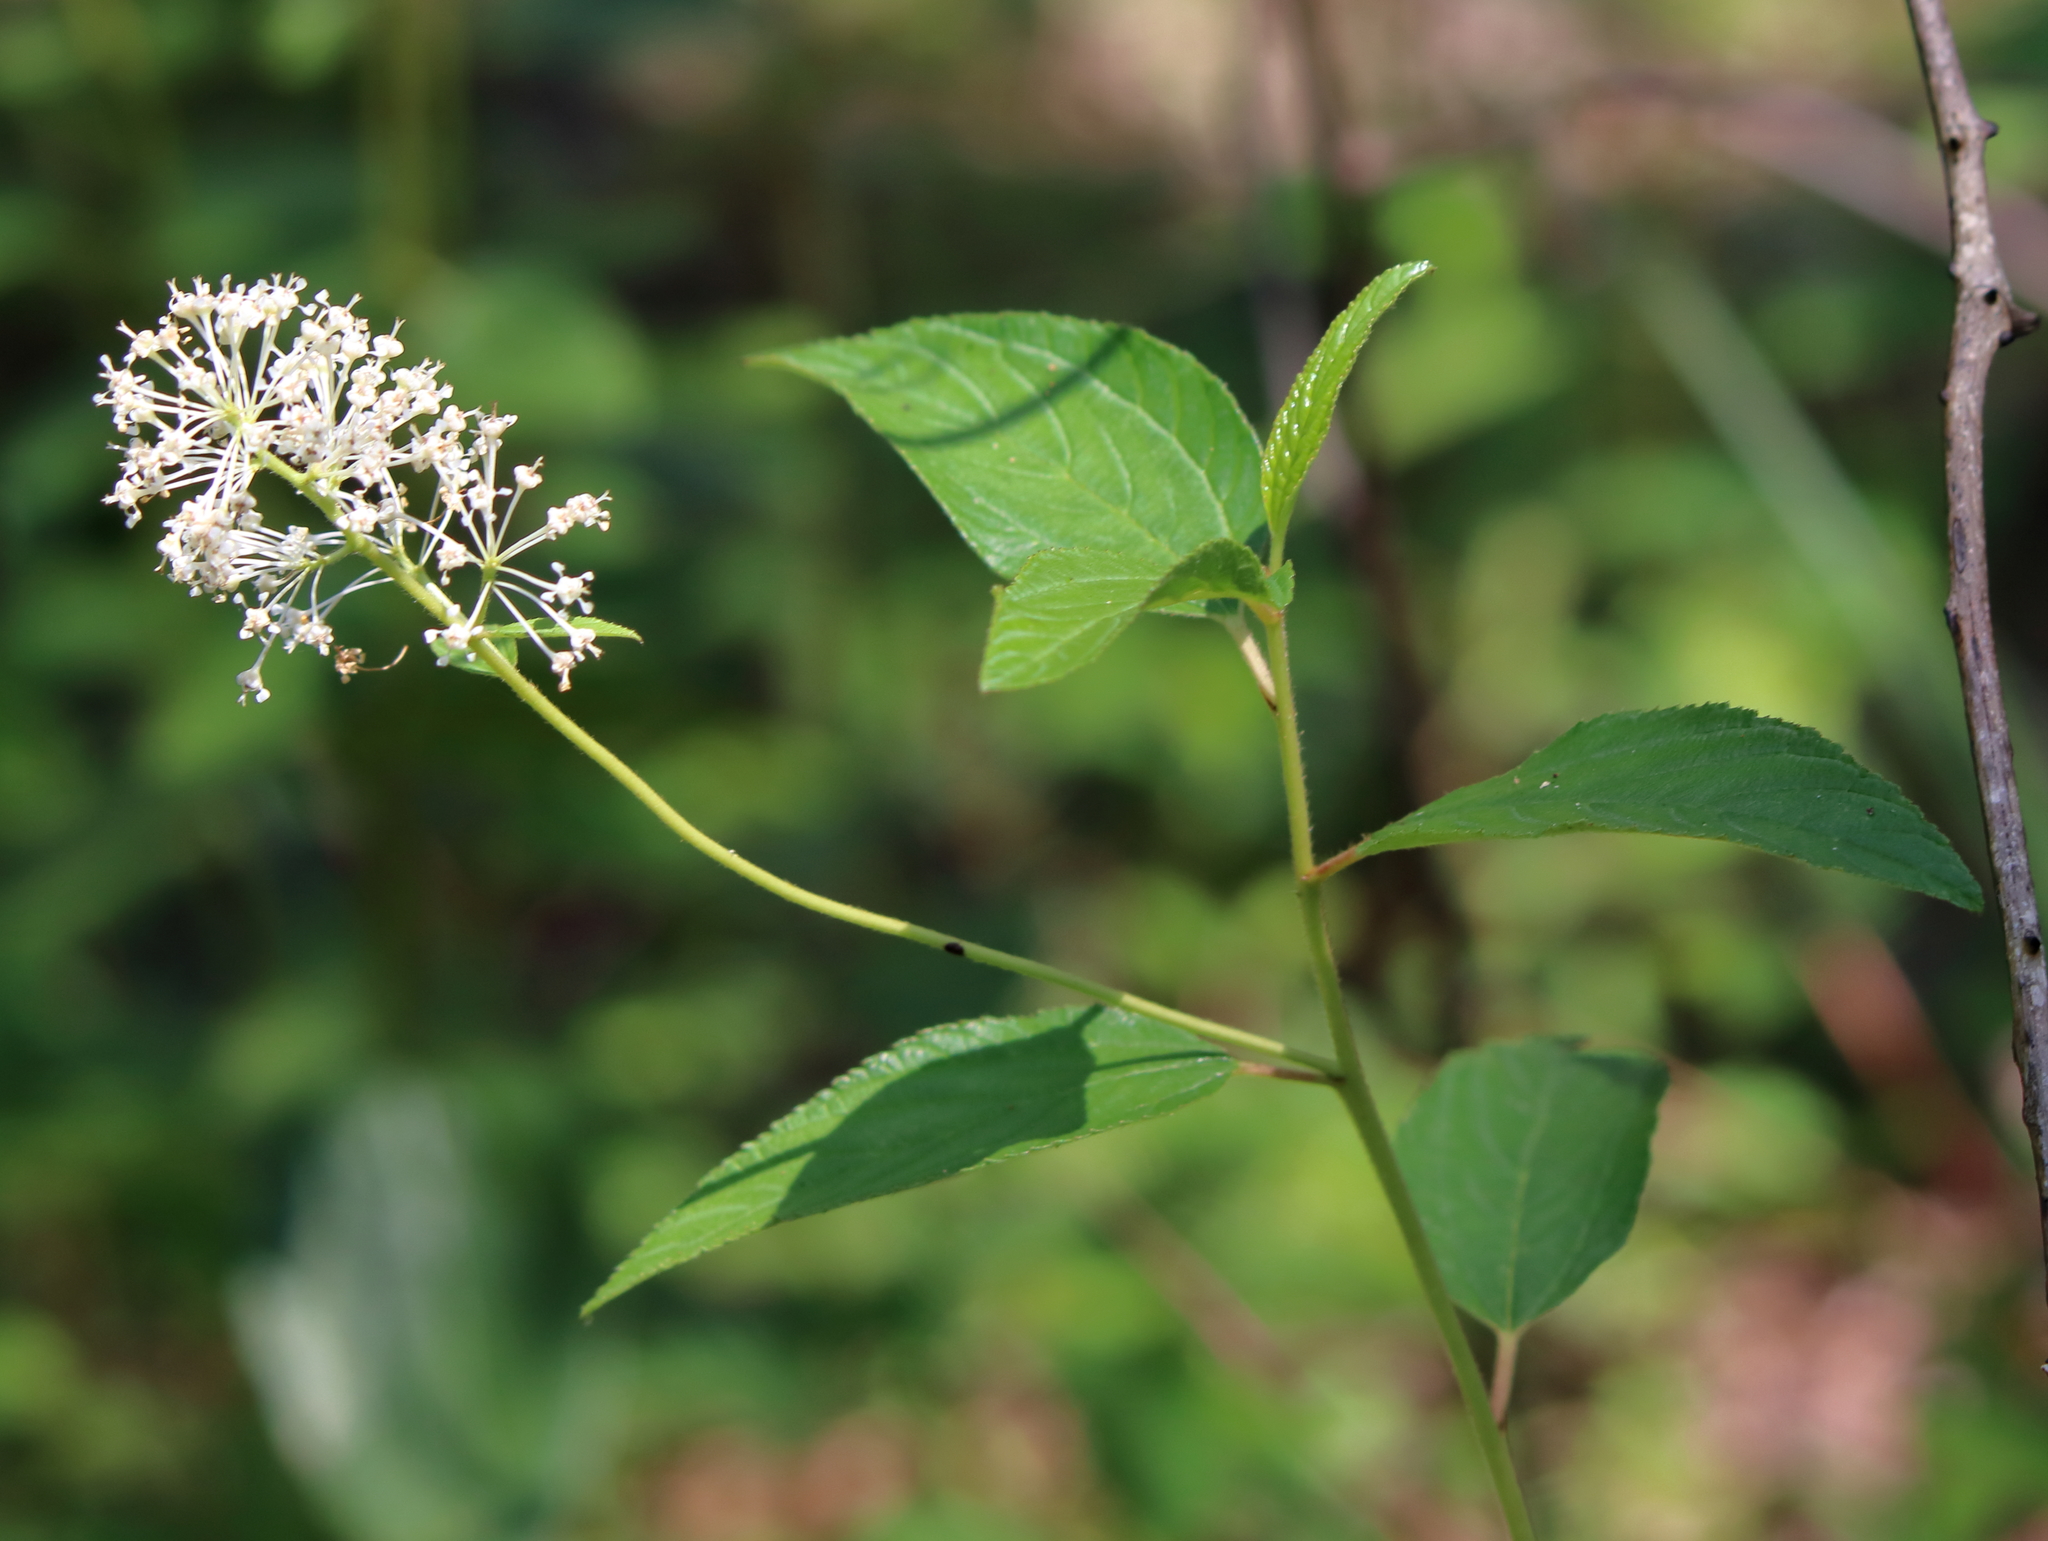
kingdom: Plantae
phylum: Tracheophyta
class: Magnoliopsida
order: Rosales
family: Rhamnaceae
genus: Ceanothus
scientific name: Ceanothus americanus
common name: Redroot
